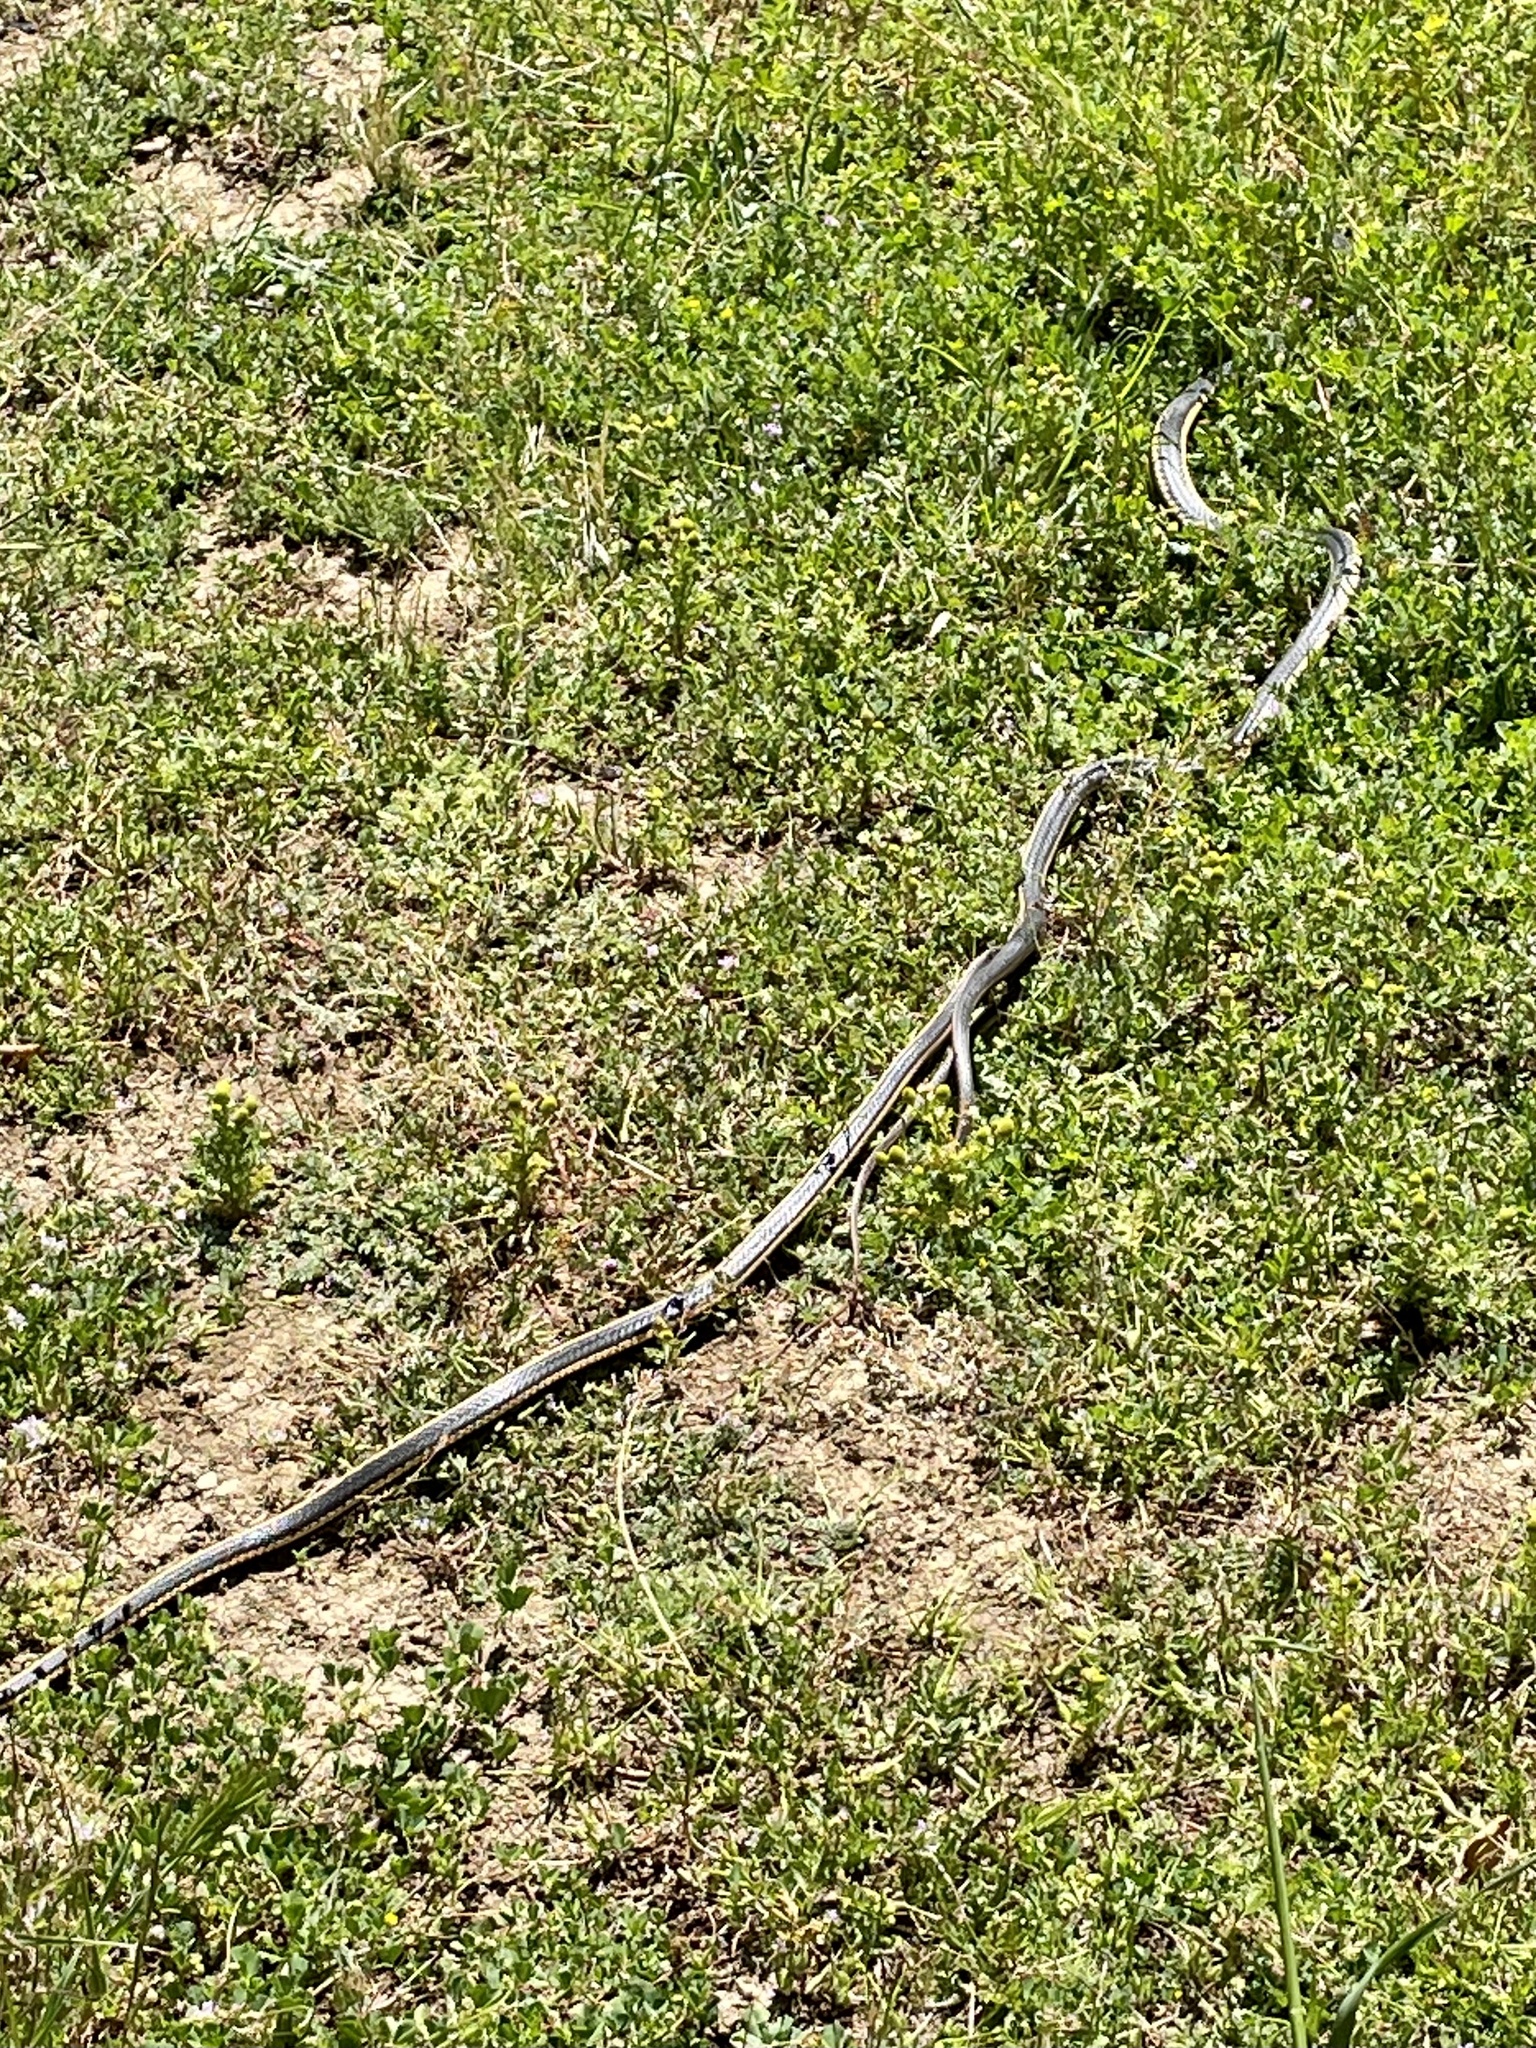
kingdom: Animalia
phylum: Chordata
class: Squamata
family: Colubridae
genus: Masticophis
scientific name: Masticophis lateralis
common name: Striped racer
